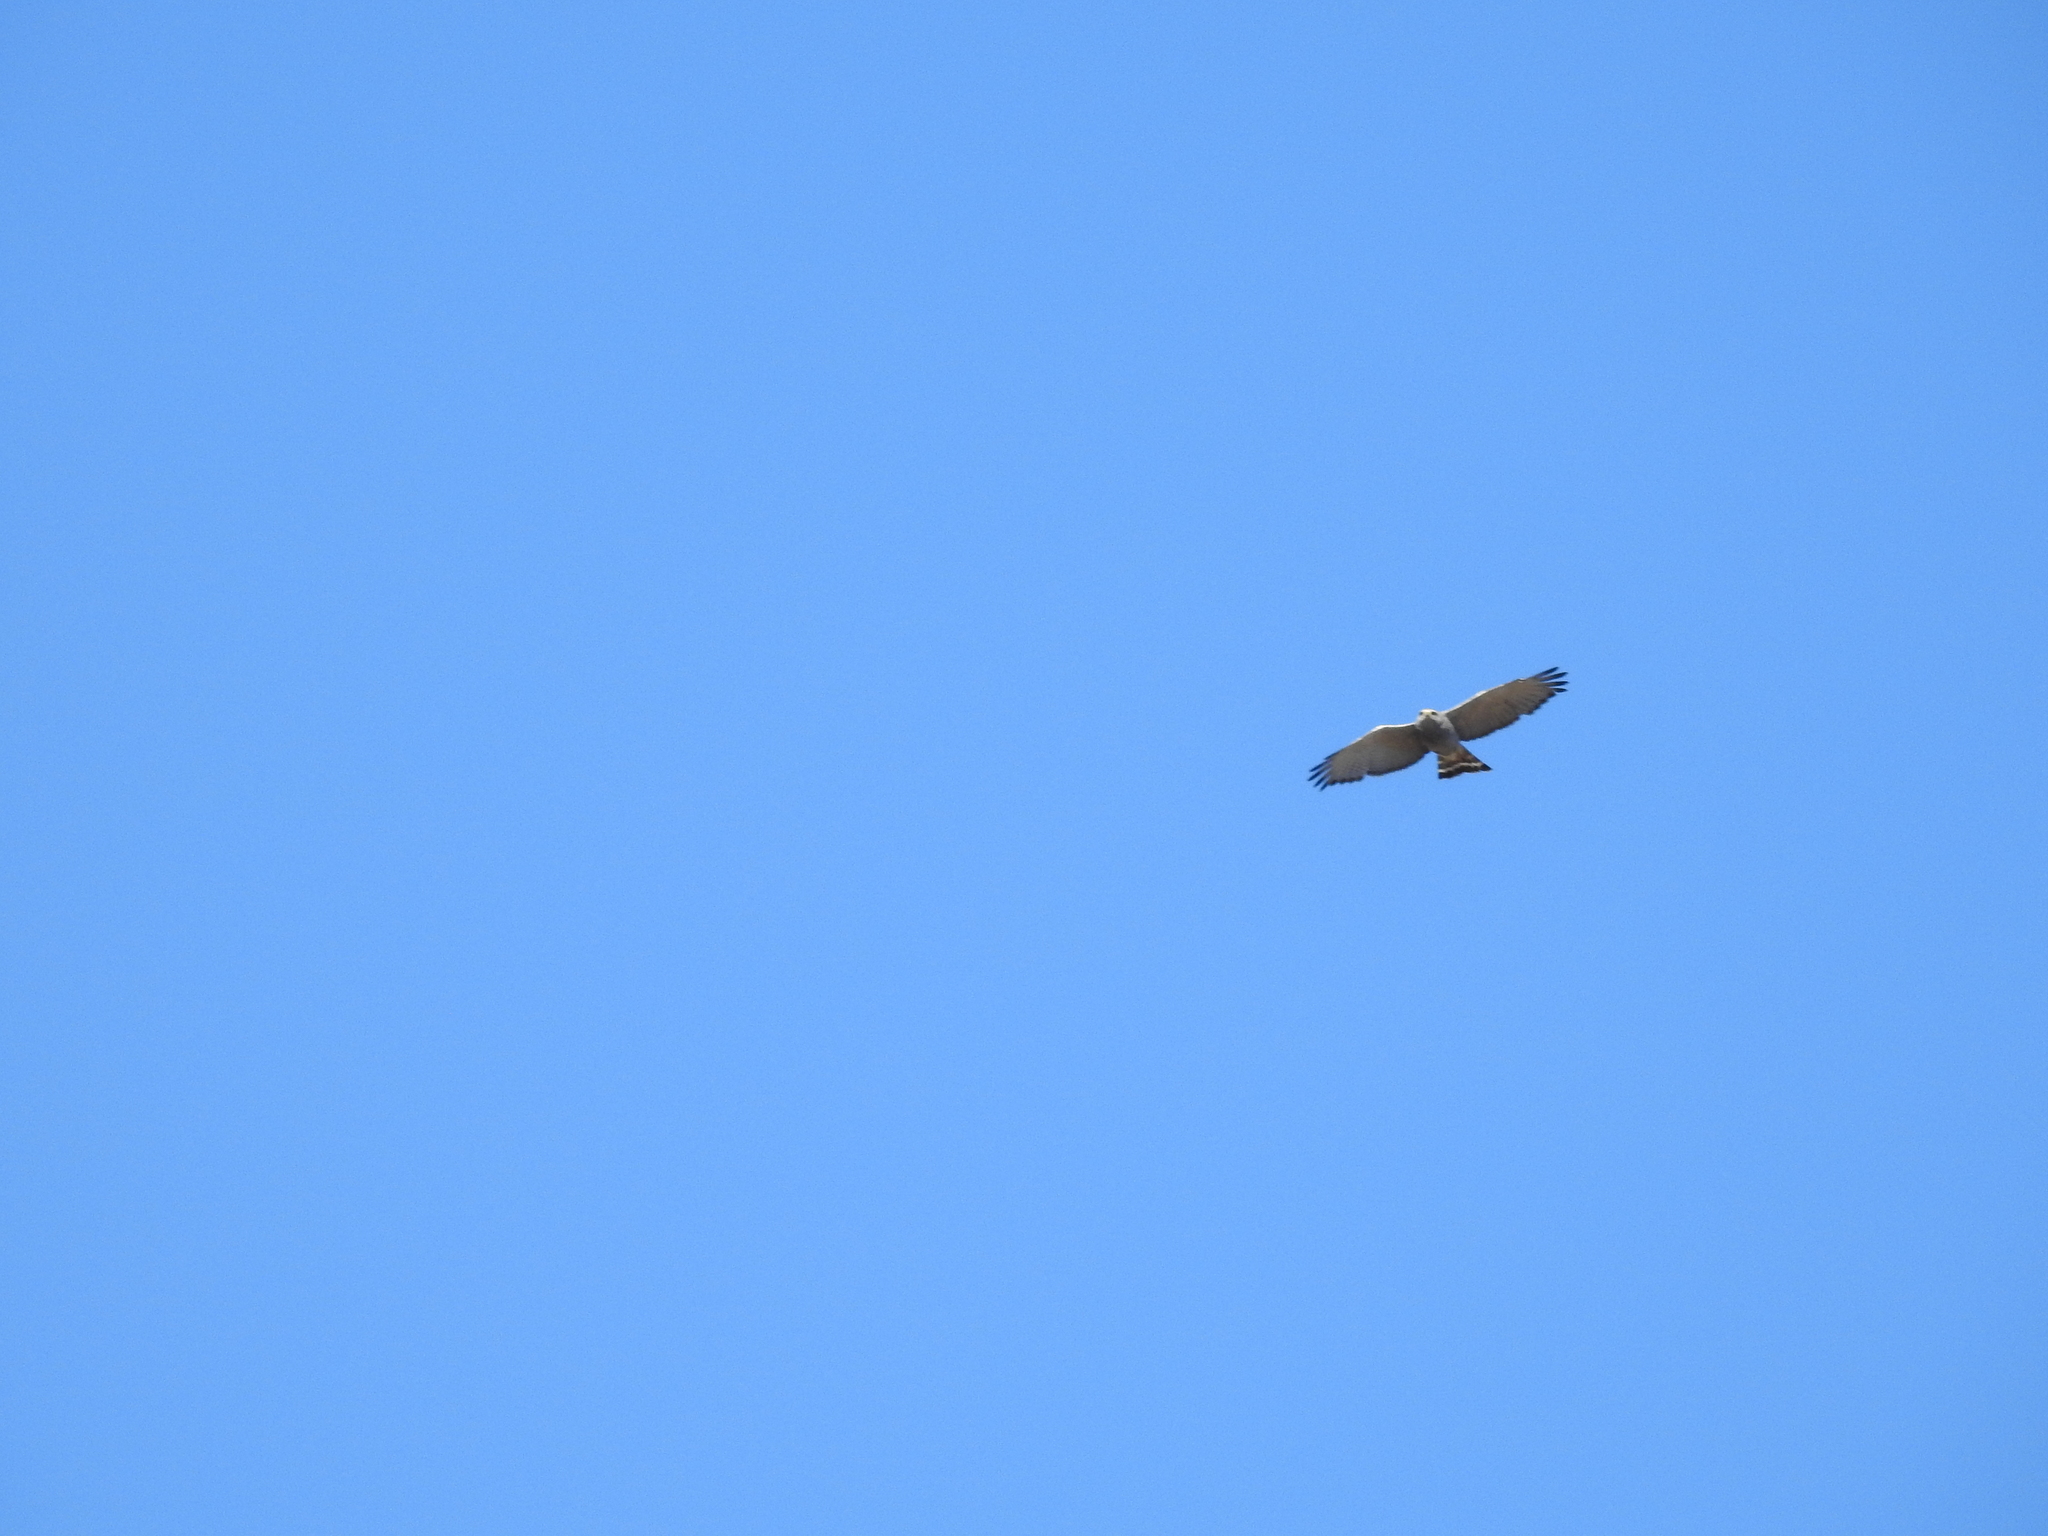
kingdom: Animalia
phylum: Chordata
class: Aves
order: Accipitriformes
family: Accipitridae
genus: Buteo
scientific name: Buteo nitidus
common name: Grey-lined hawk
